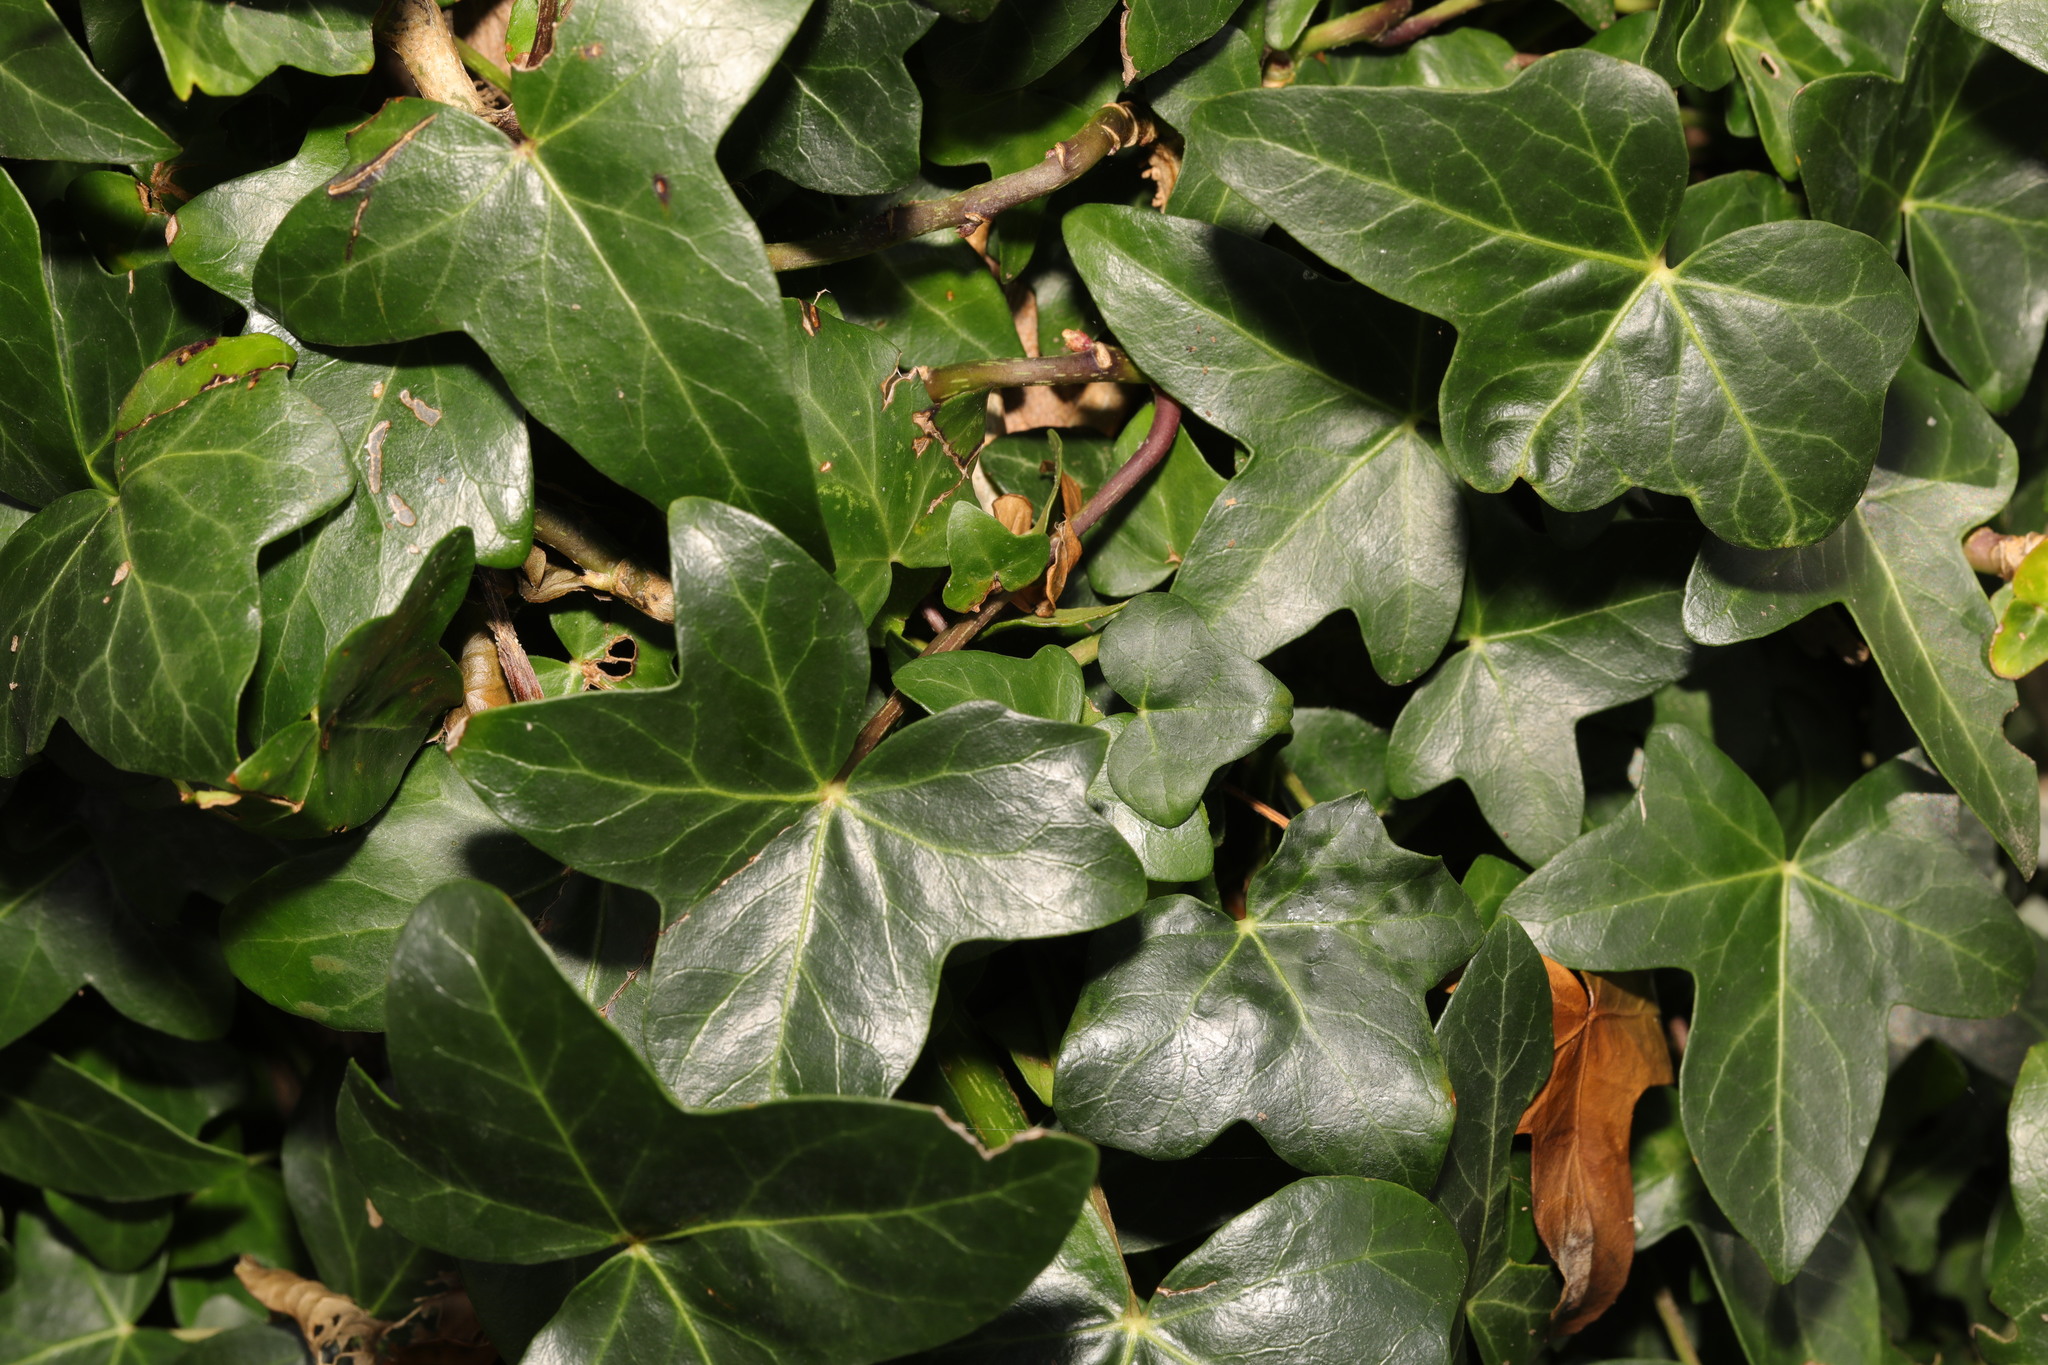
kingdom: Plantae
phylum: Tracheophyta
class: Magnoliopsida
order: Apiales
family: Araliaceae
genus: Hedera
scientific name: Hedera helix
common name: Ivy
